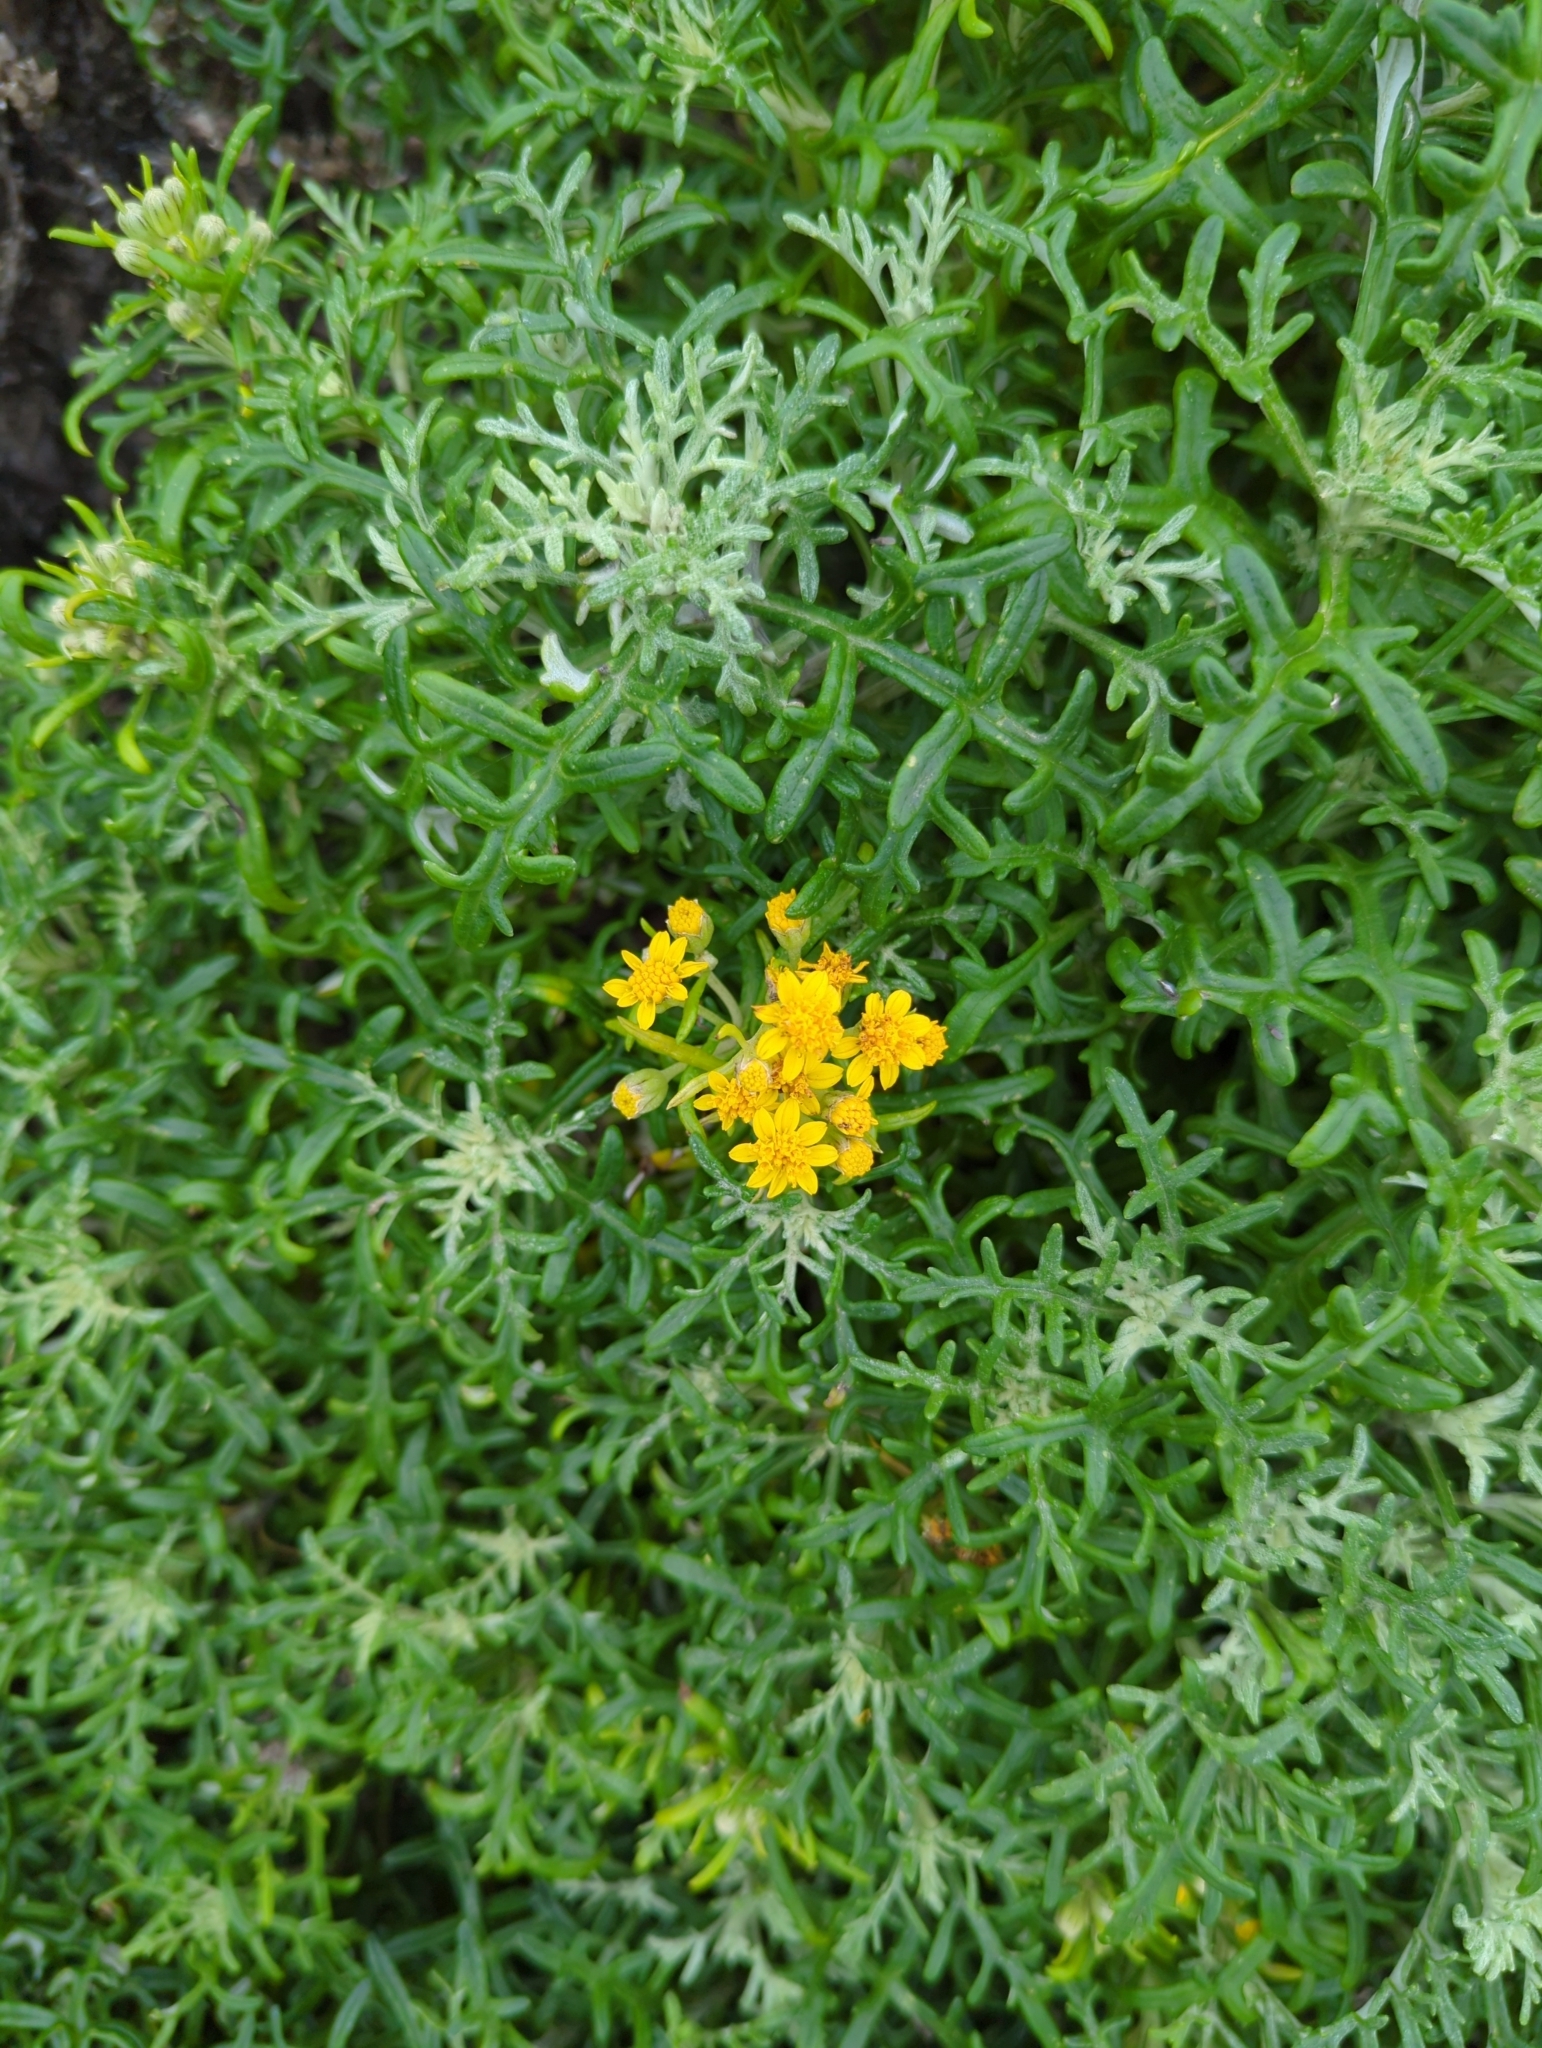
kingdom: Plantae
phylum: Tracheophyta
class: Magnoliopsida
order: Asterales
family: Asteraceae
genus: Eriophyllum
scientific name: Eriophyllum staechadifolium
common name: Lizardtail
